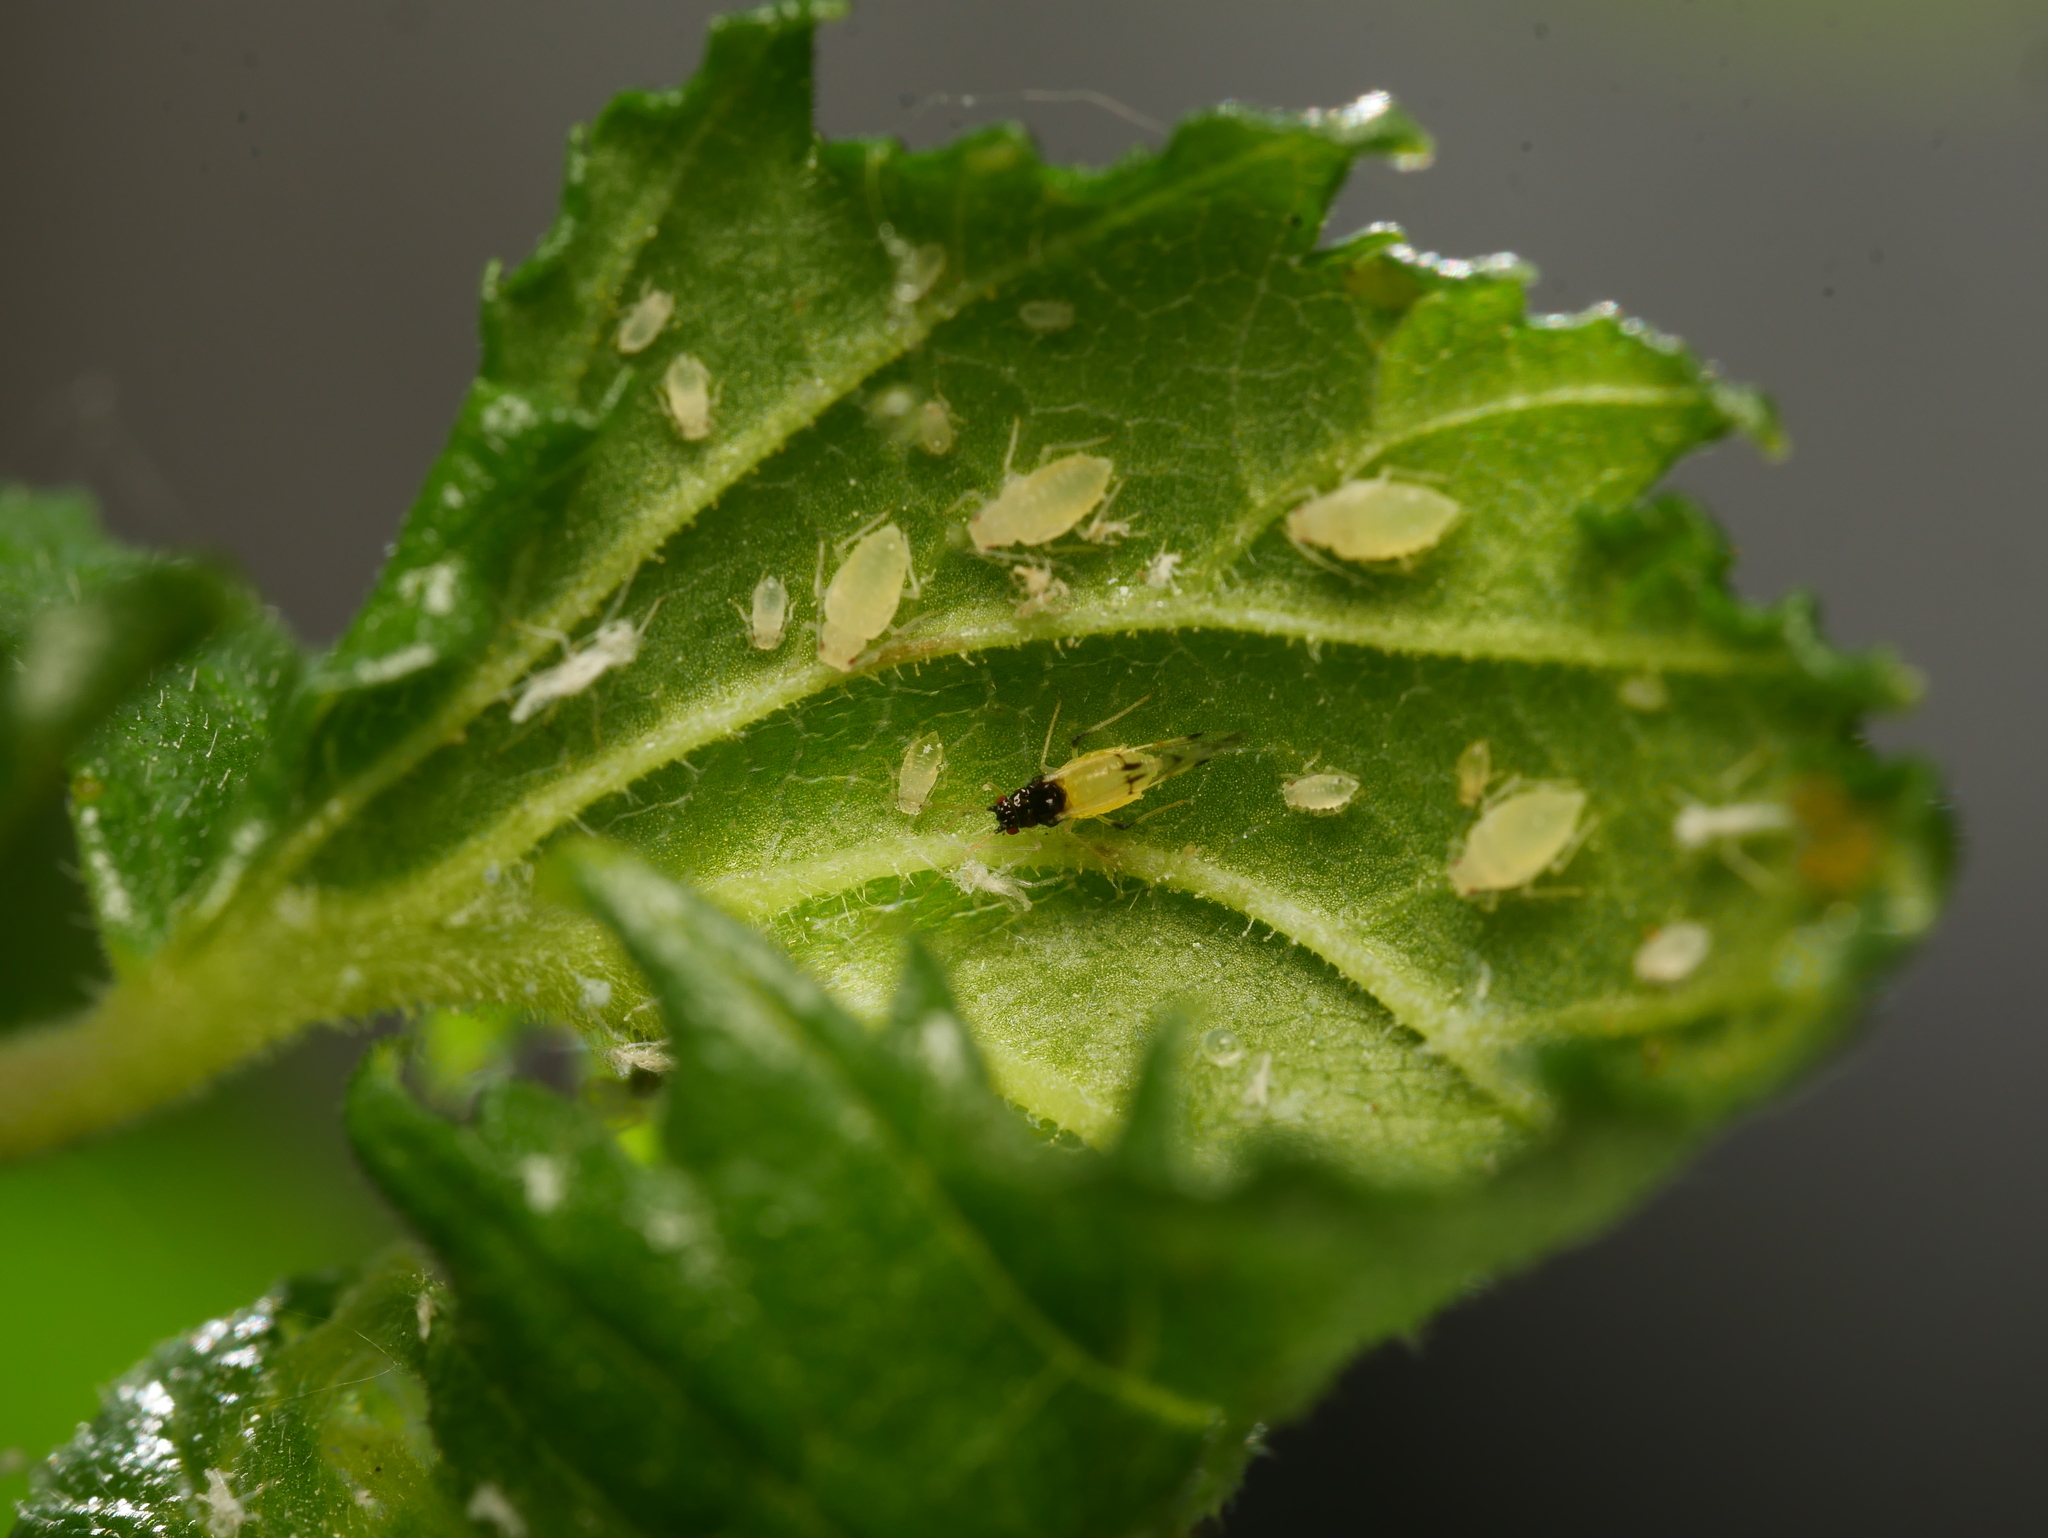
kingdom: Animalia
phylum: Arthropoda
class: Insecta
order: Hemiptera
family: Aphididae
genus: Tinocallis
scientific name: Tinocallis takachihoensis
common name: Aphid
